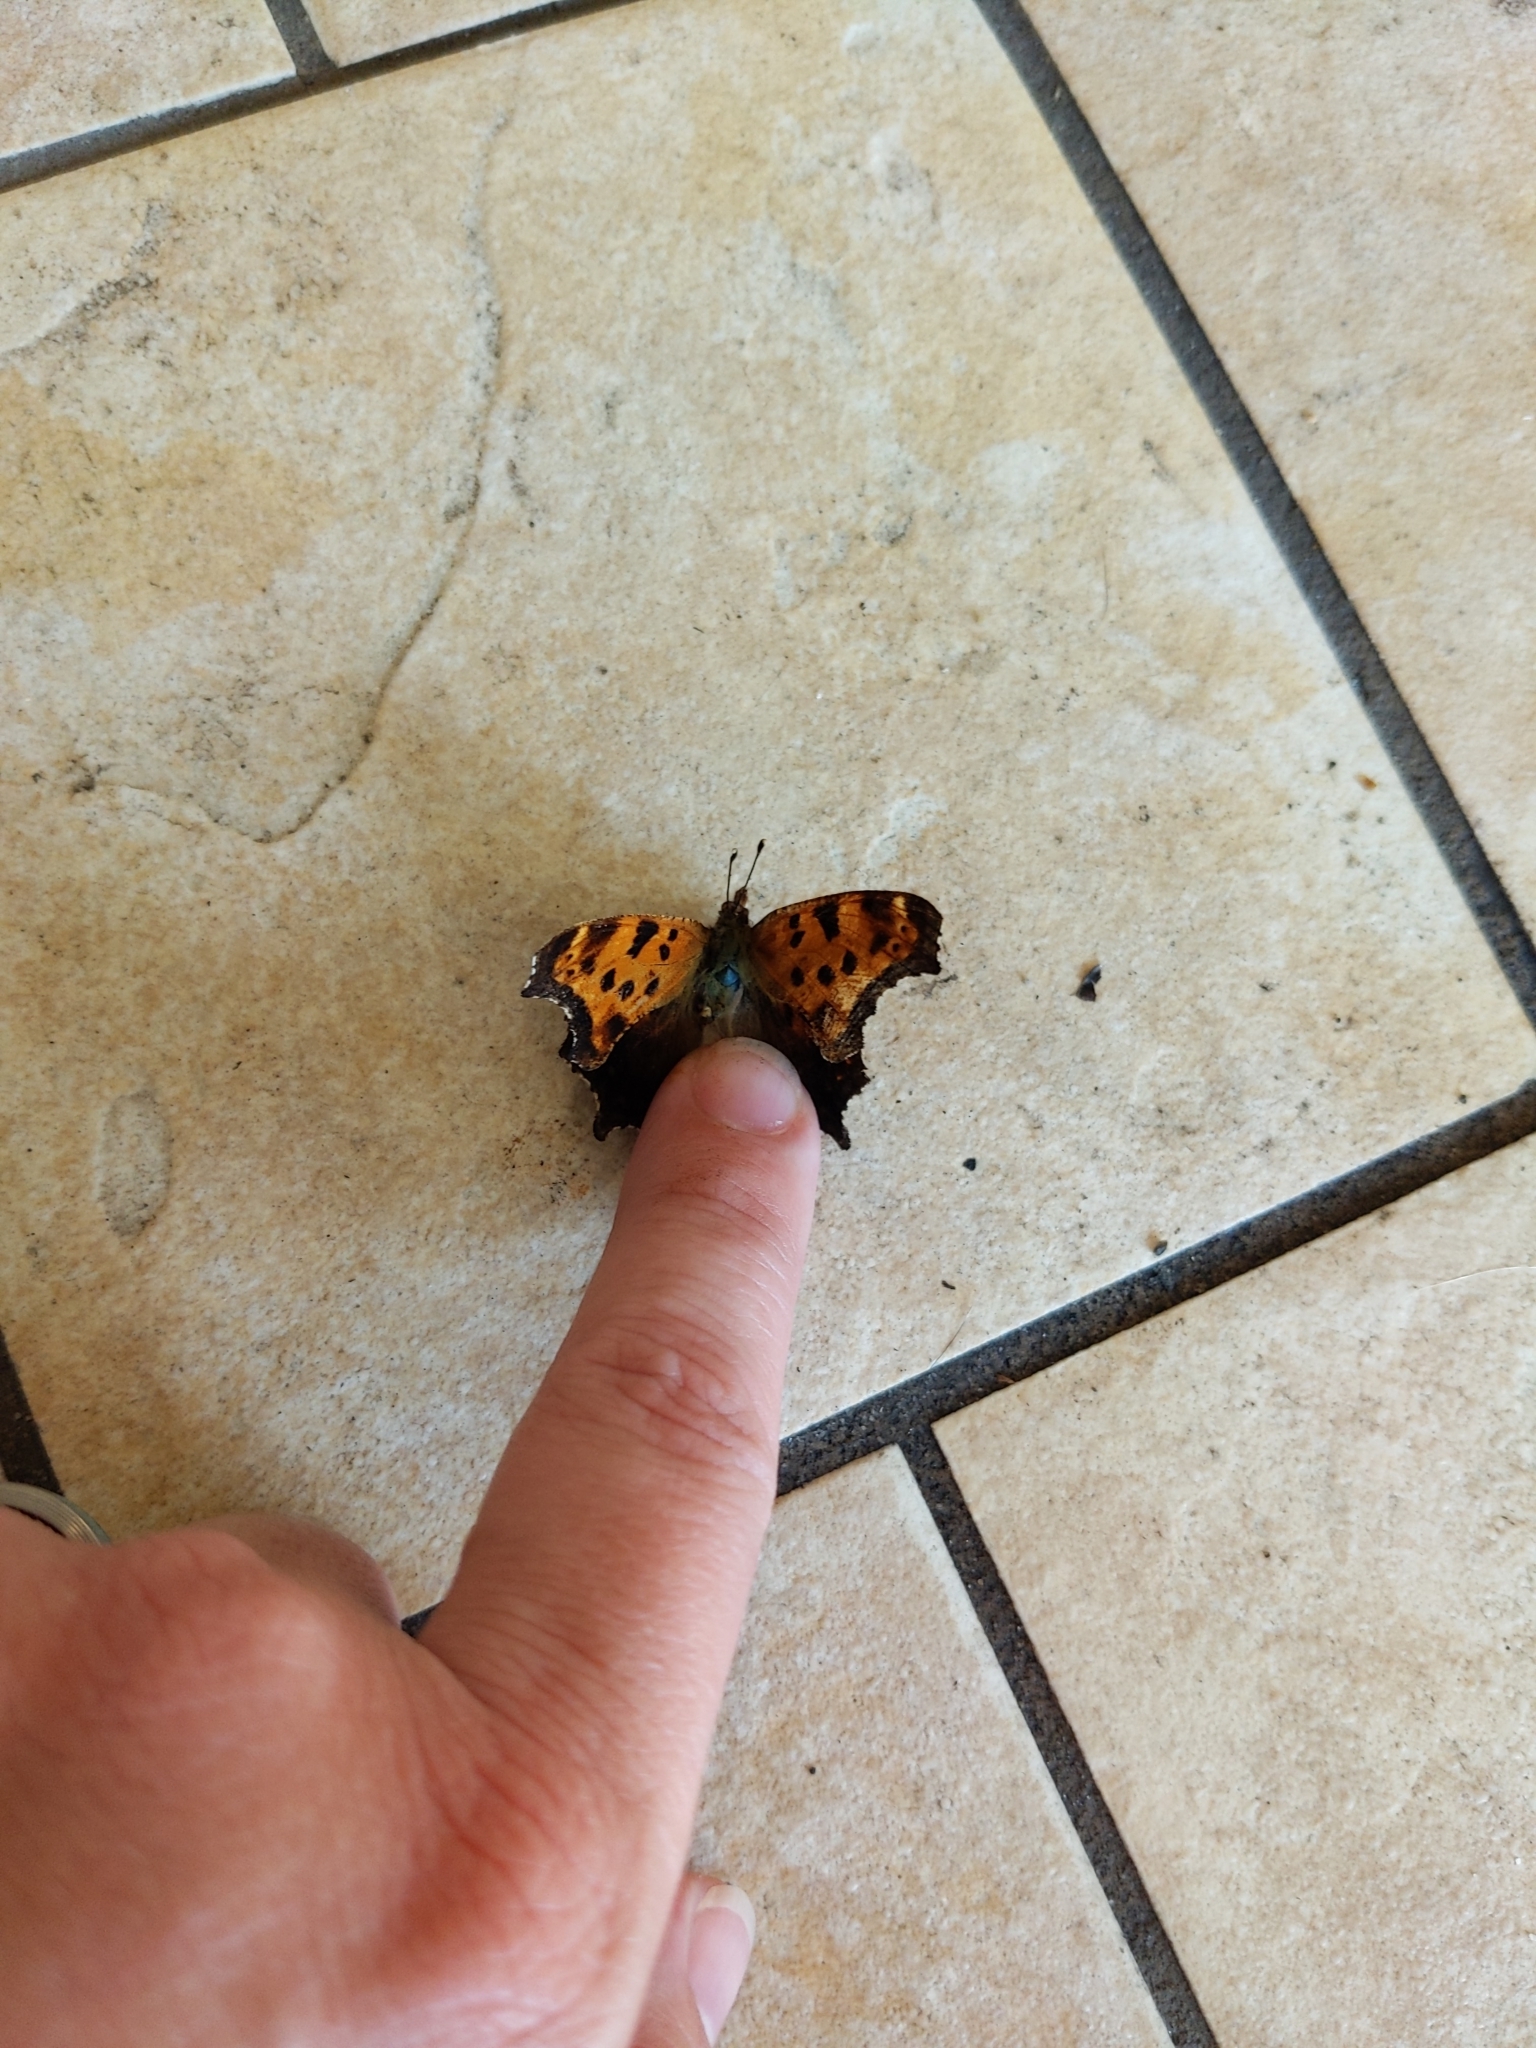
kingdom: Animalia
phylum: Arthropoda
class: Insecta
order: Lepidoptera
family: Nymphalidae
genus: Polygonia
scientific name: Polygonia comma
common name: Eastern comma
